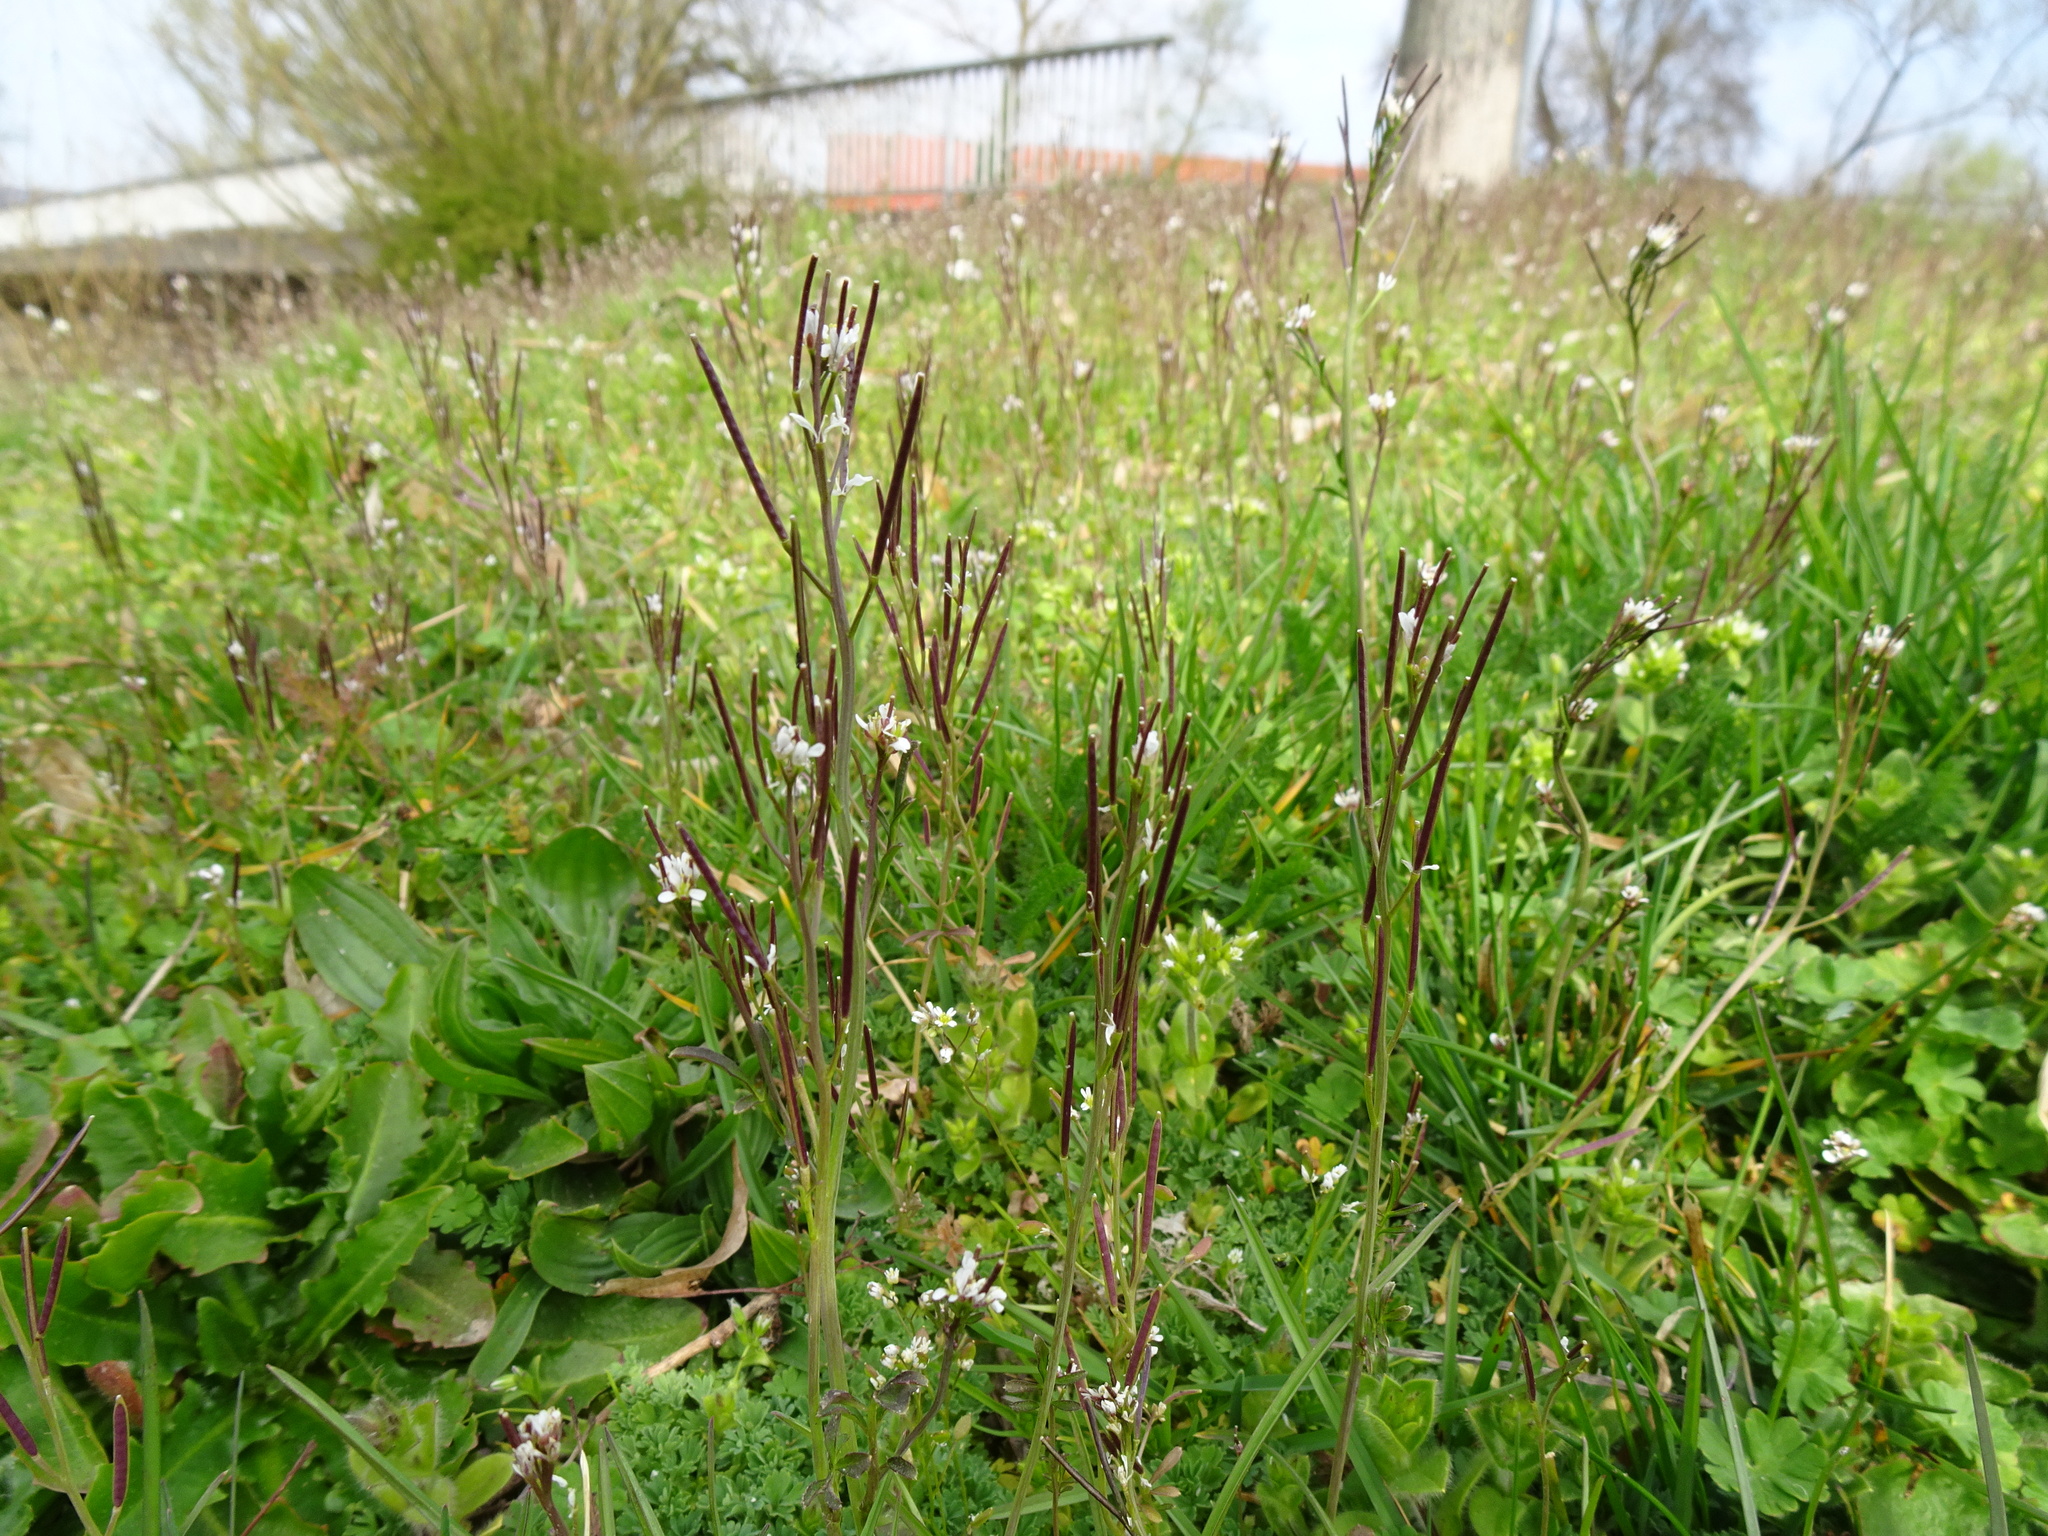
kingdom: Plantae
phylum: Tracheophyta
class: Magnoliopsida
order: Brassicales
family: Brassicaceae
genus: Cardamine
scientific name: Cardamine flexuosa
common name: Woodland bittercress
